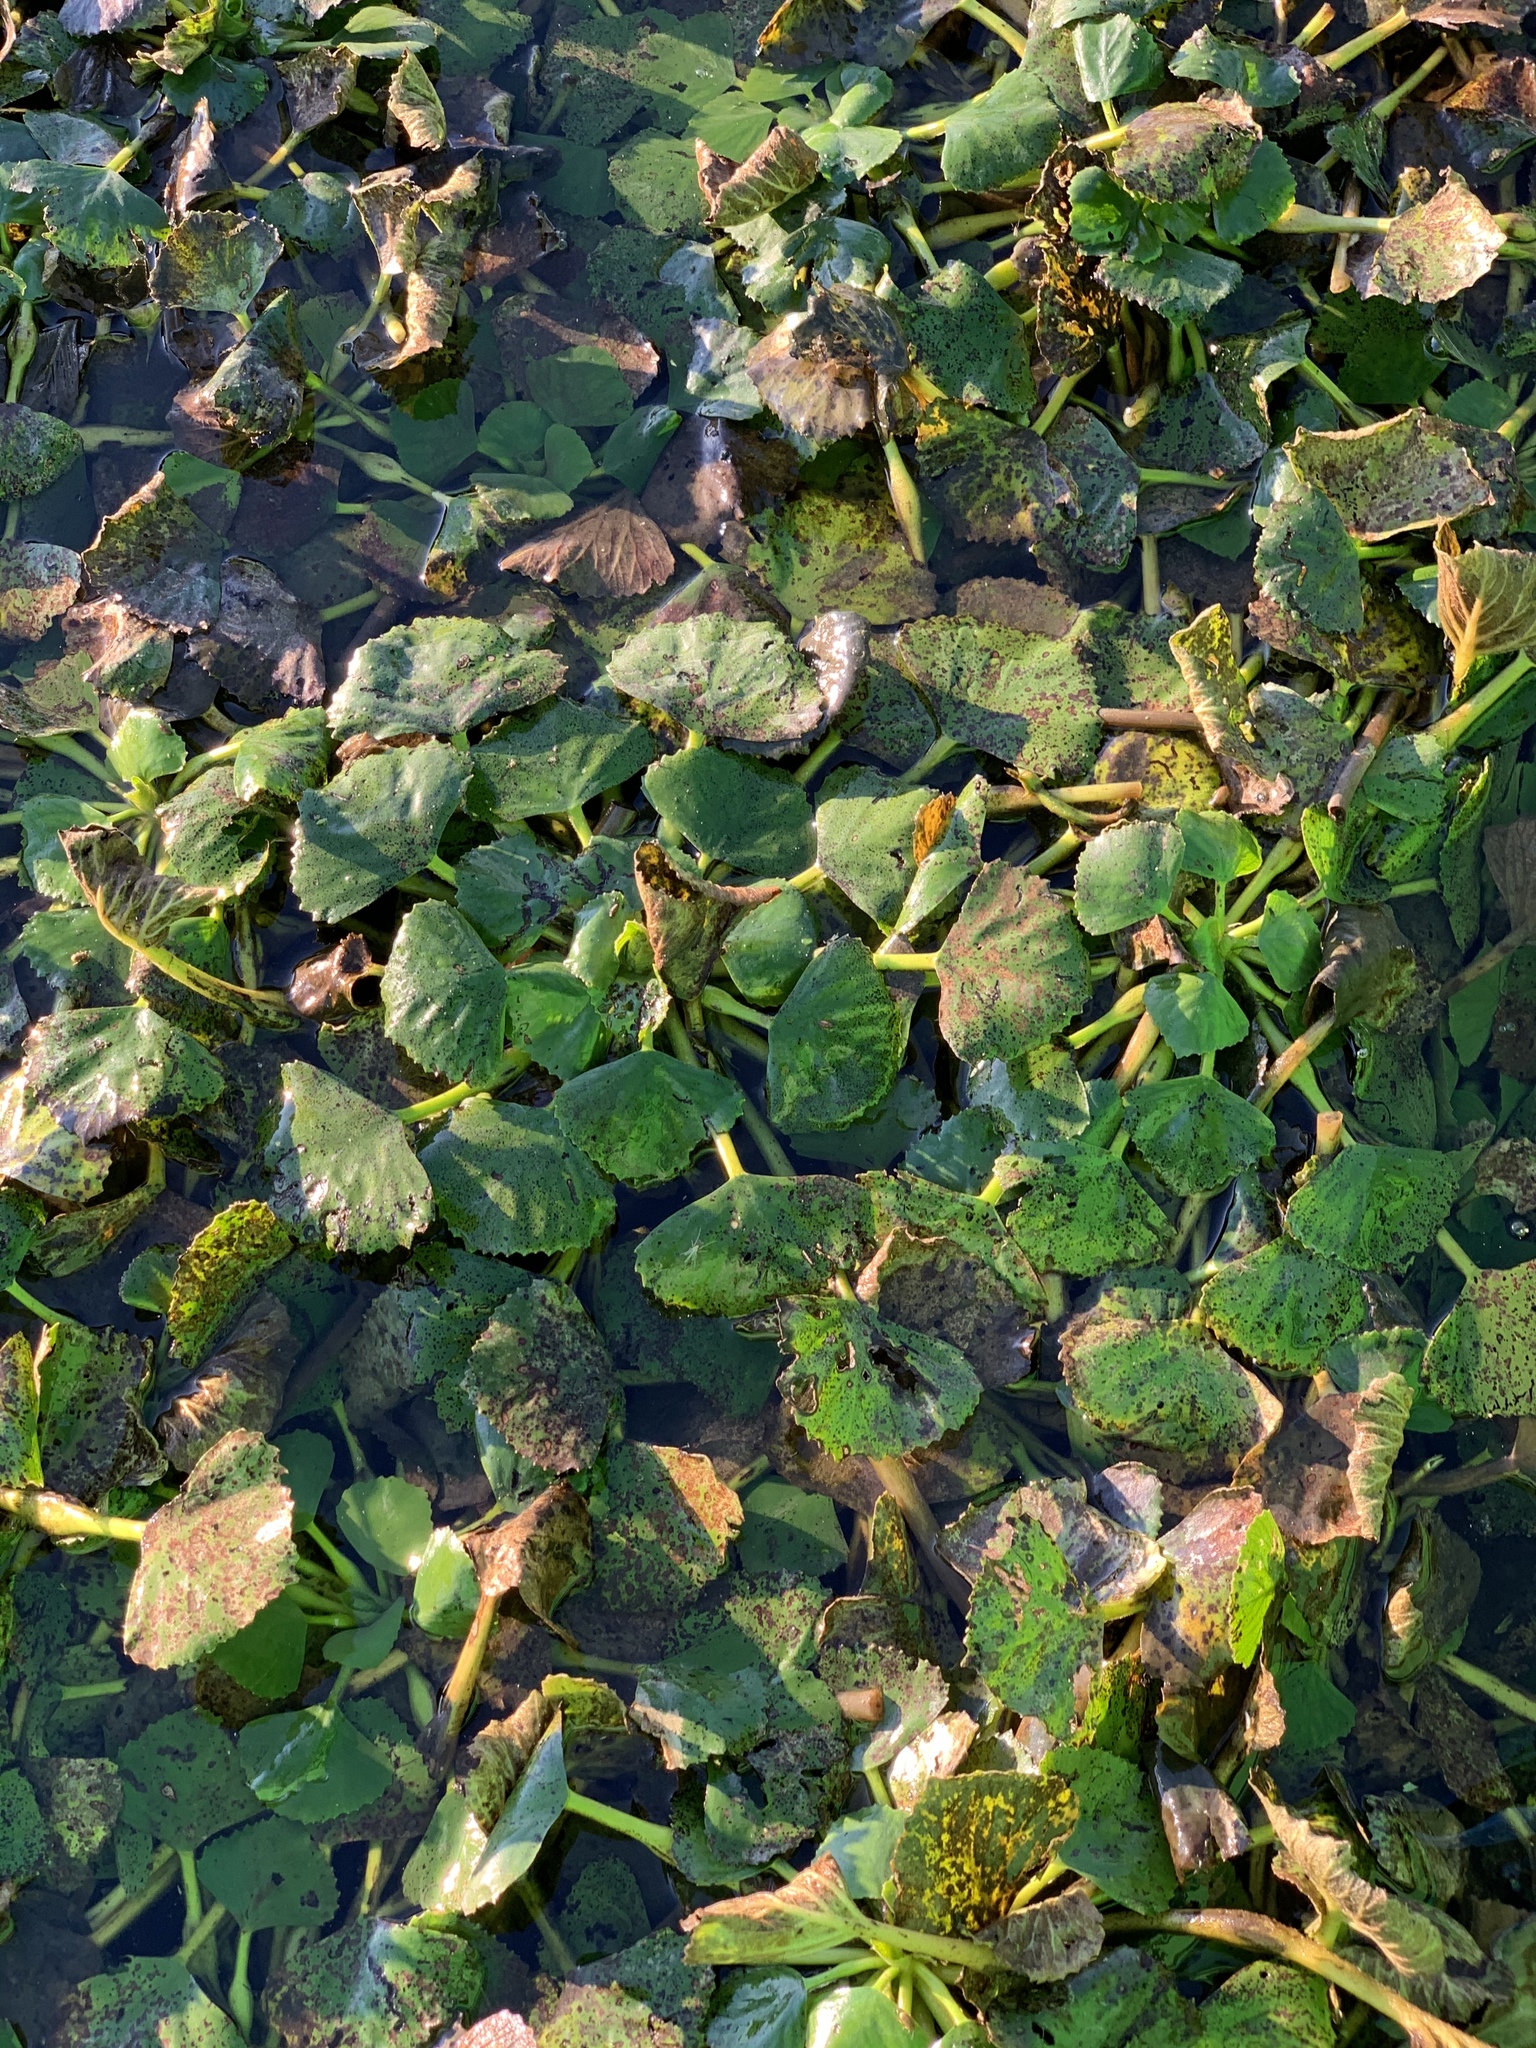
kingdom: Plantae
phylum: Tracheophyta
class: Magnoliopsida
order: Myrtales
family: Lythraceae
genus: Trapa
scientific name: Trapa natans
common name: Water chestnut
